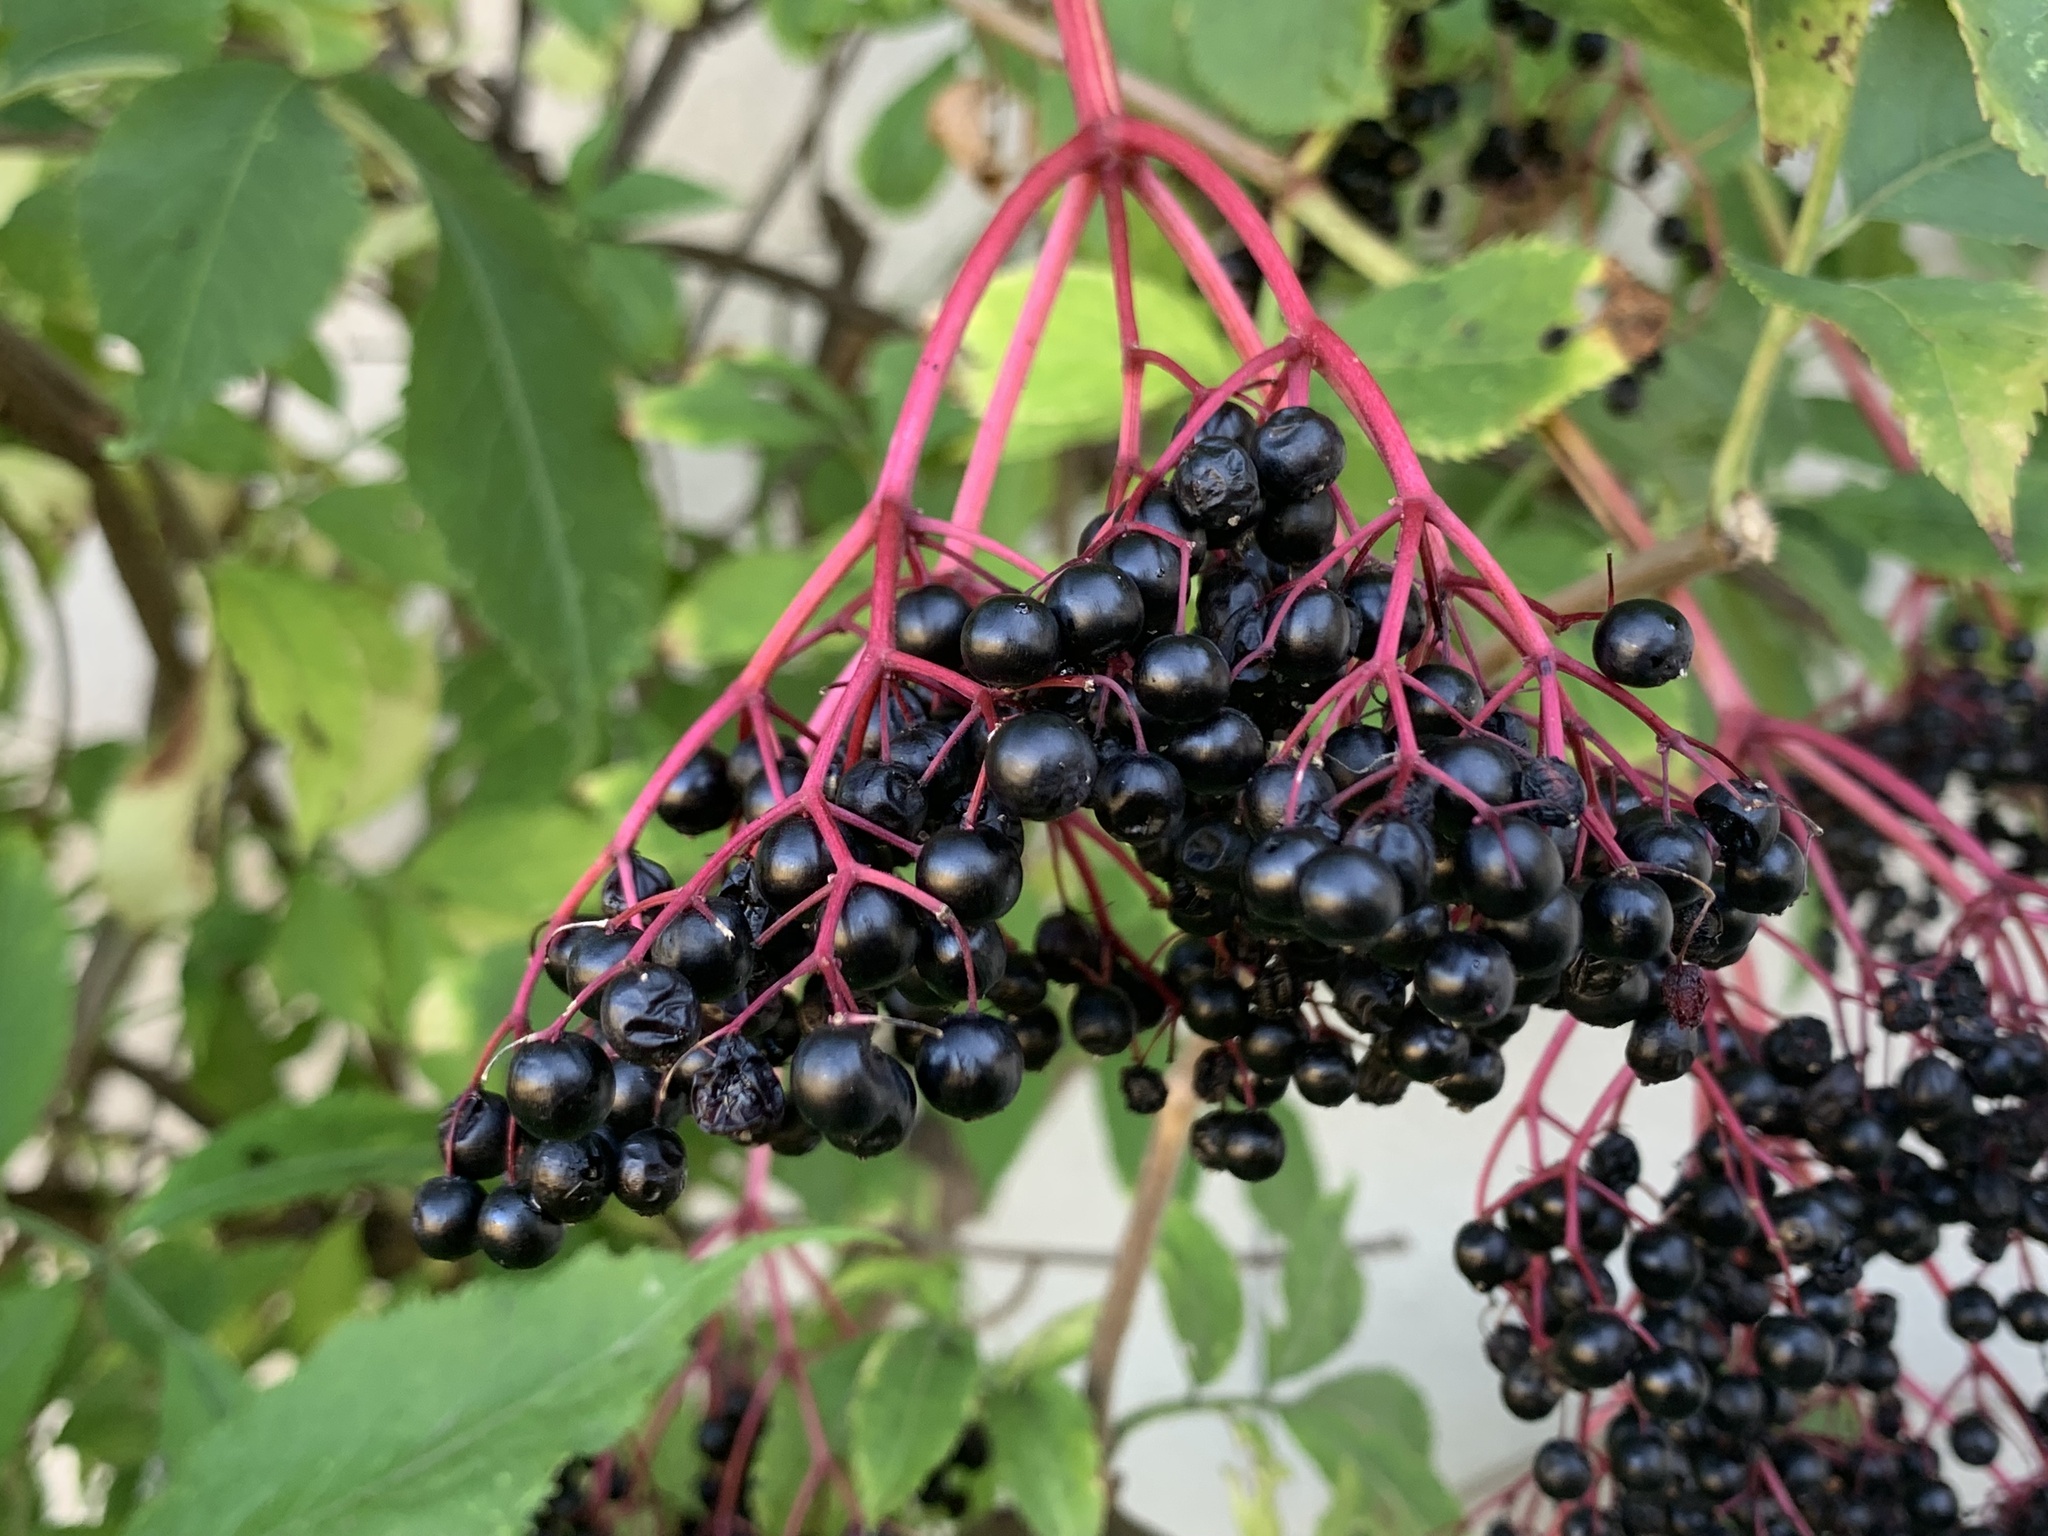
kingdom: Plantae
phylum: Tracheophyta
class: Magnoliopsida
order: Dipsacales
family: Viburnaceae
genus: Sambucus
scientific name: Sambucus nigra
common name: Elder
